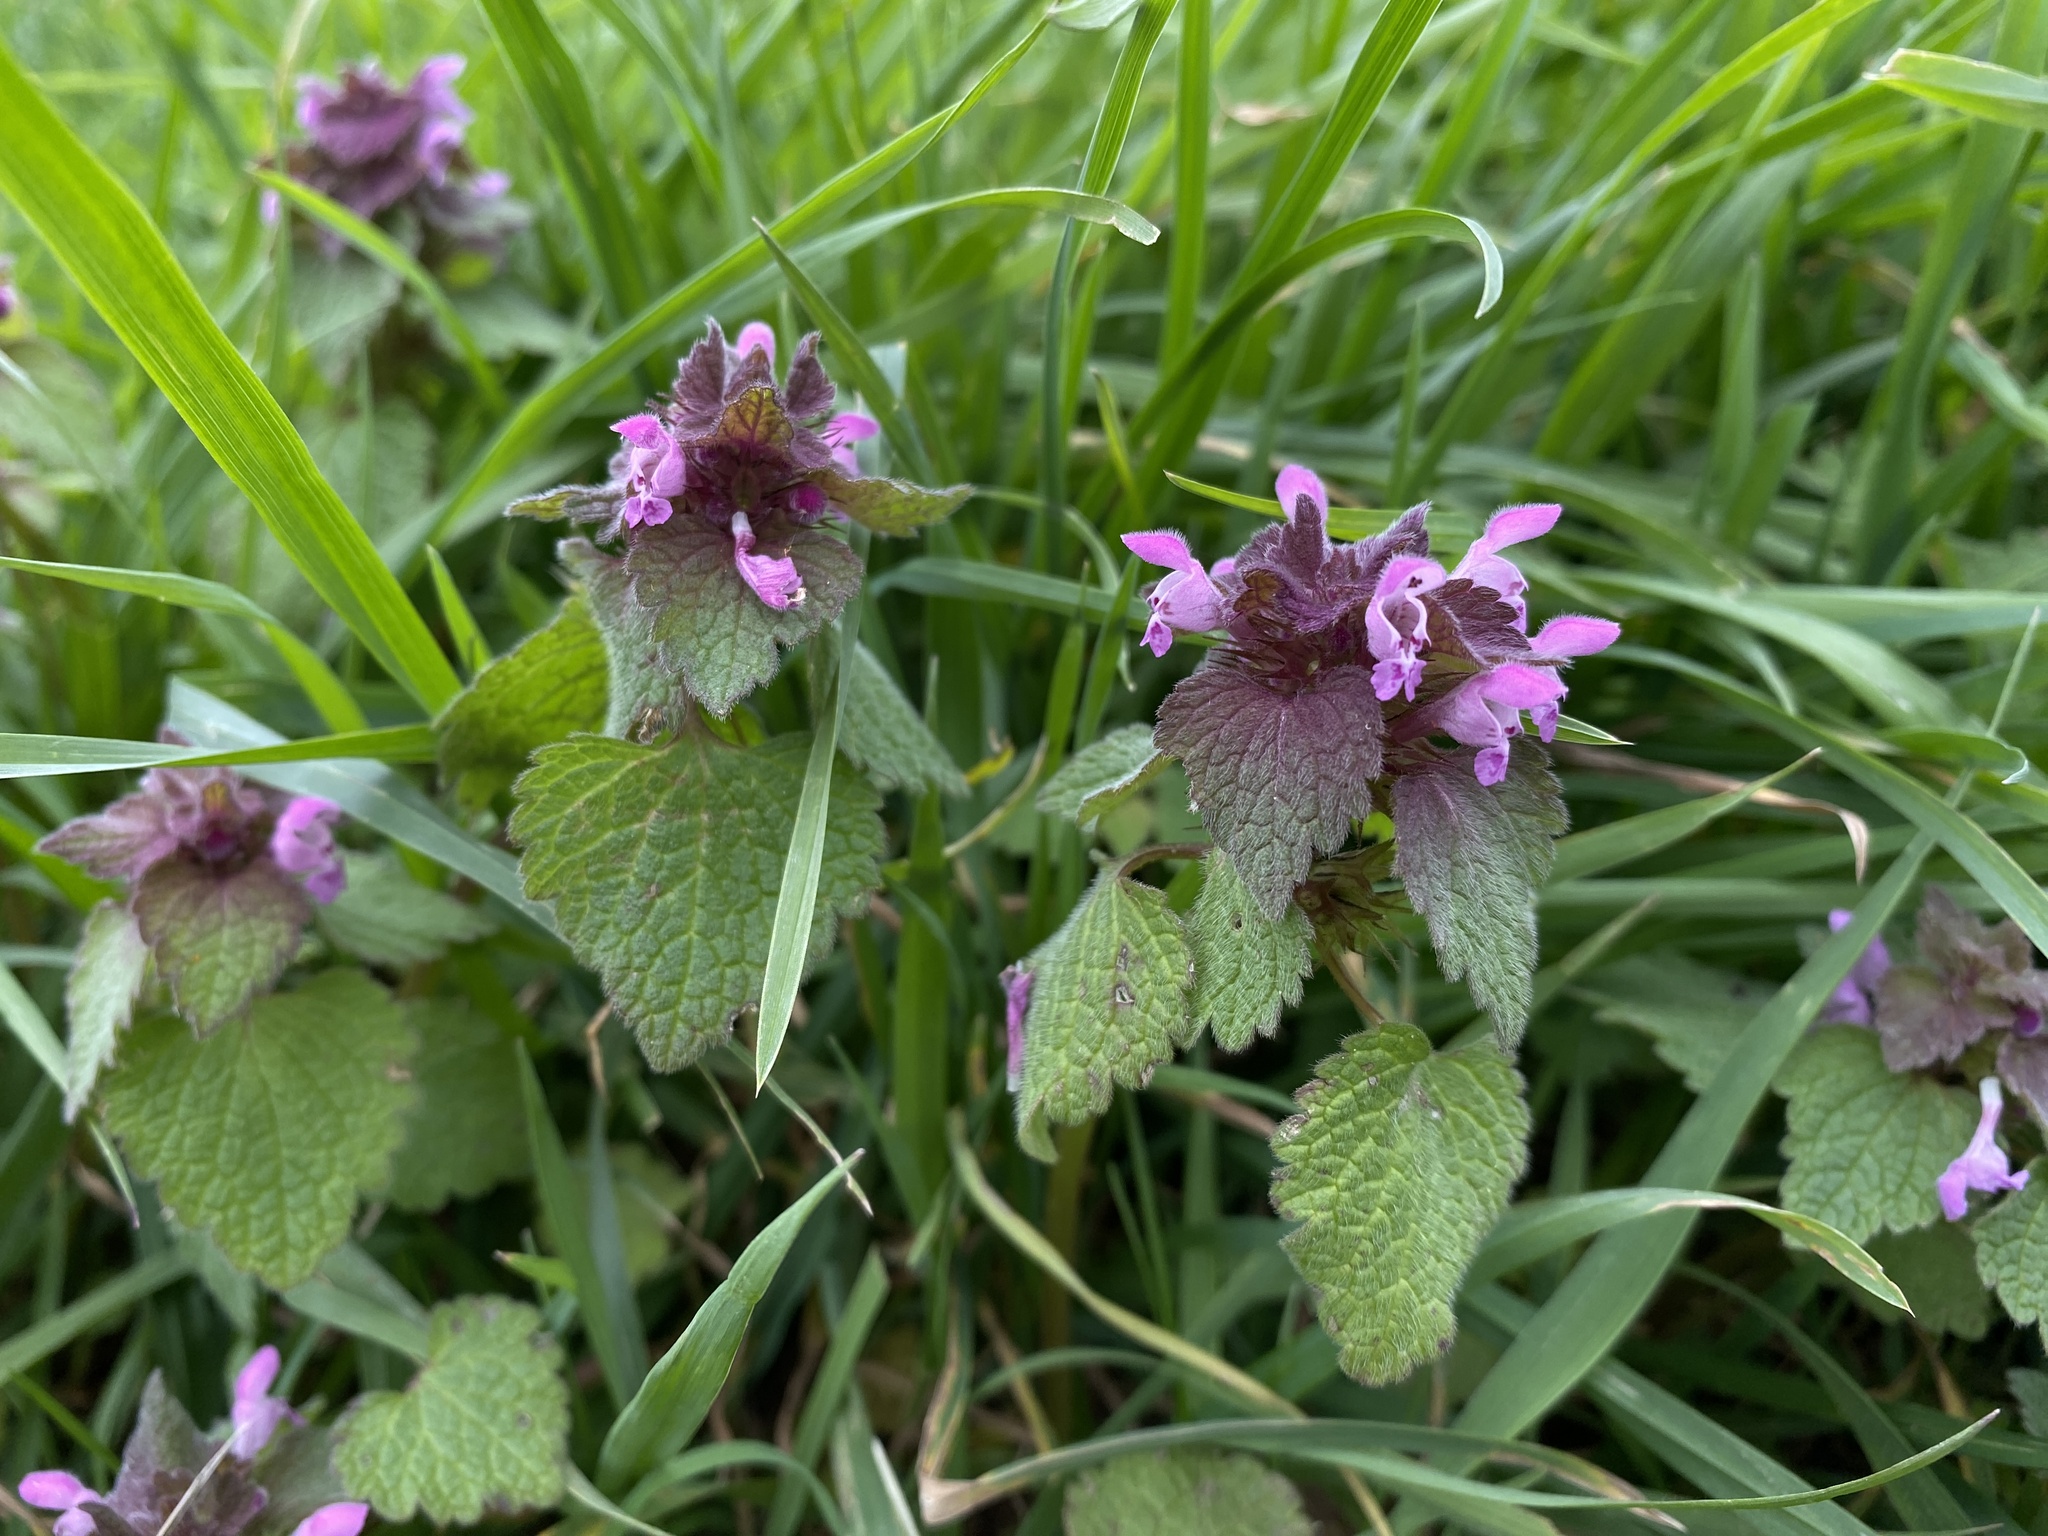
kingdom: Plantae
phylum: Tracheophyta
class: Magnoliopsida
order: Lamiales
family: Lamiaceae
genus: Lamium
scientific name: Lamium purpureum
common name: Red dead-nettle
